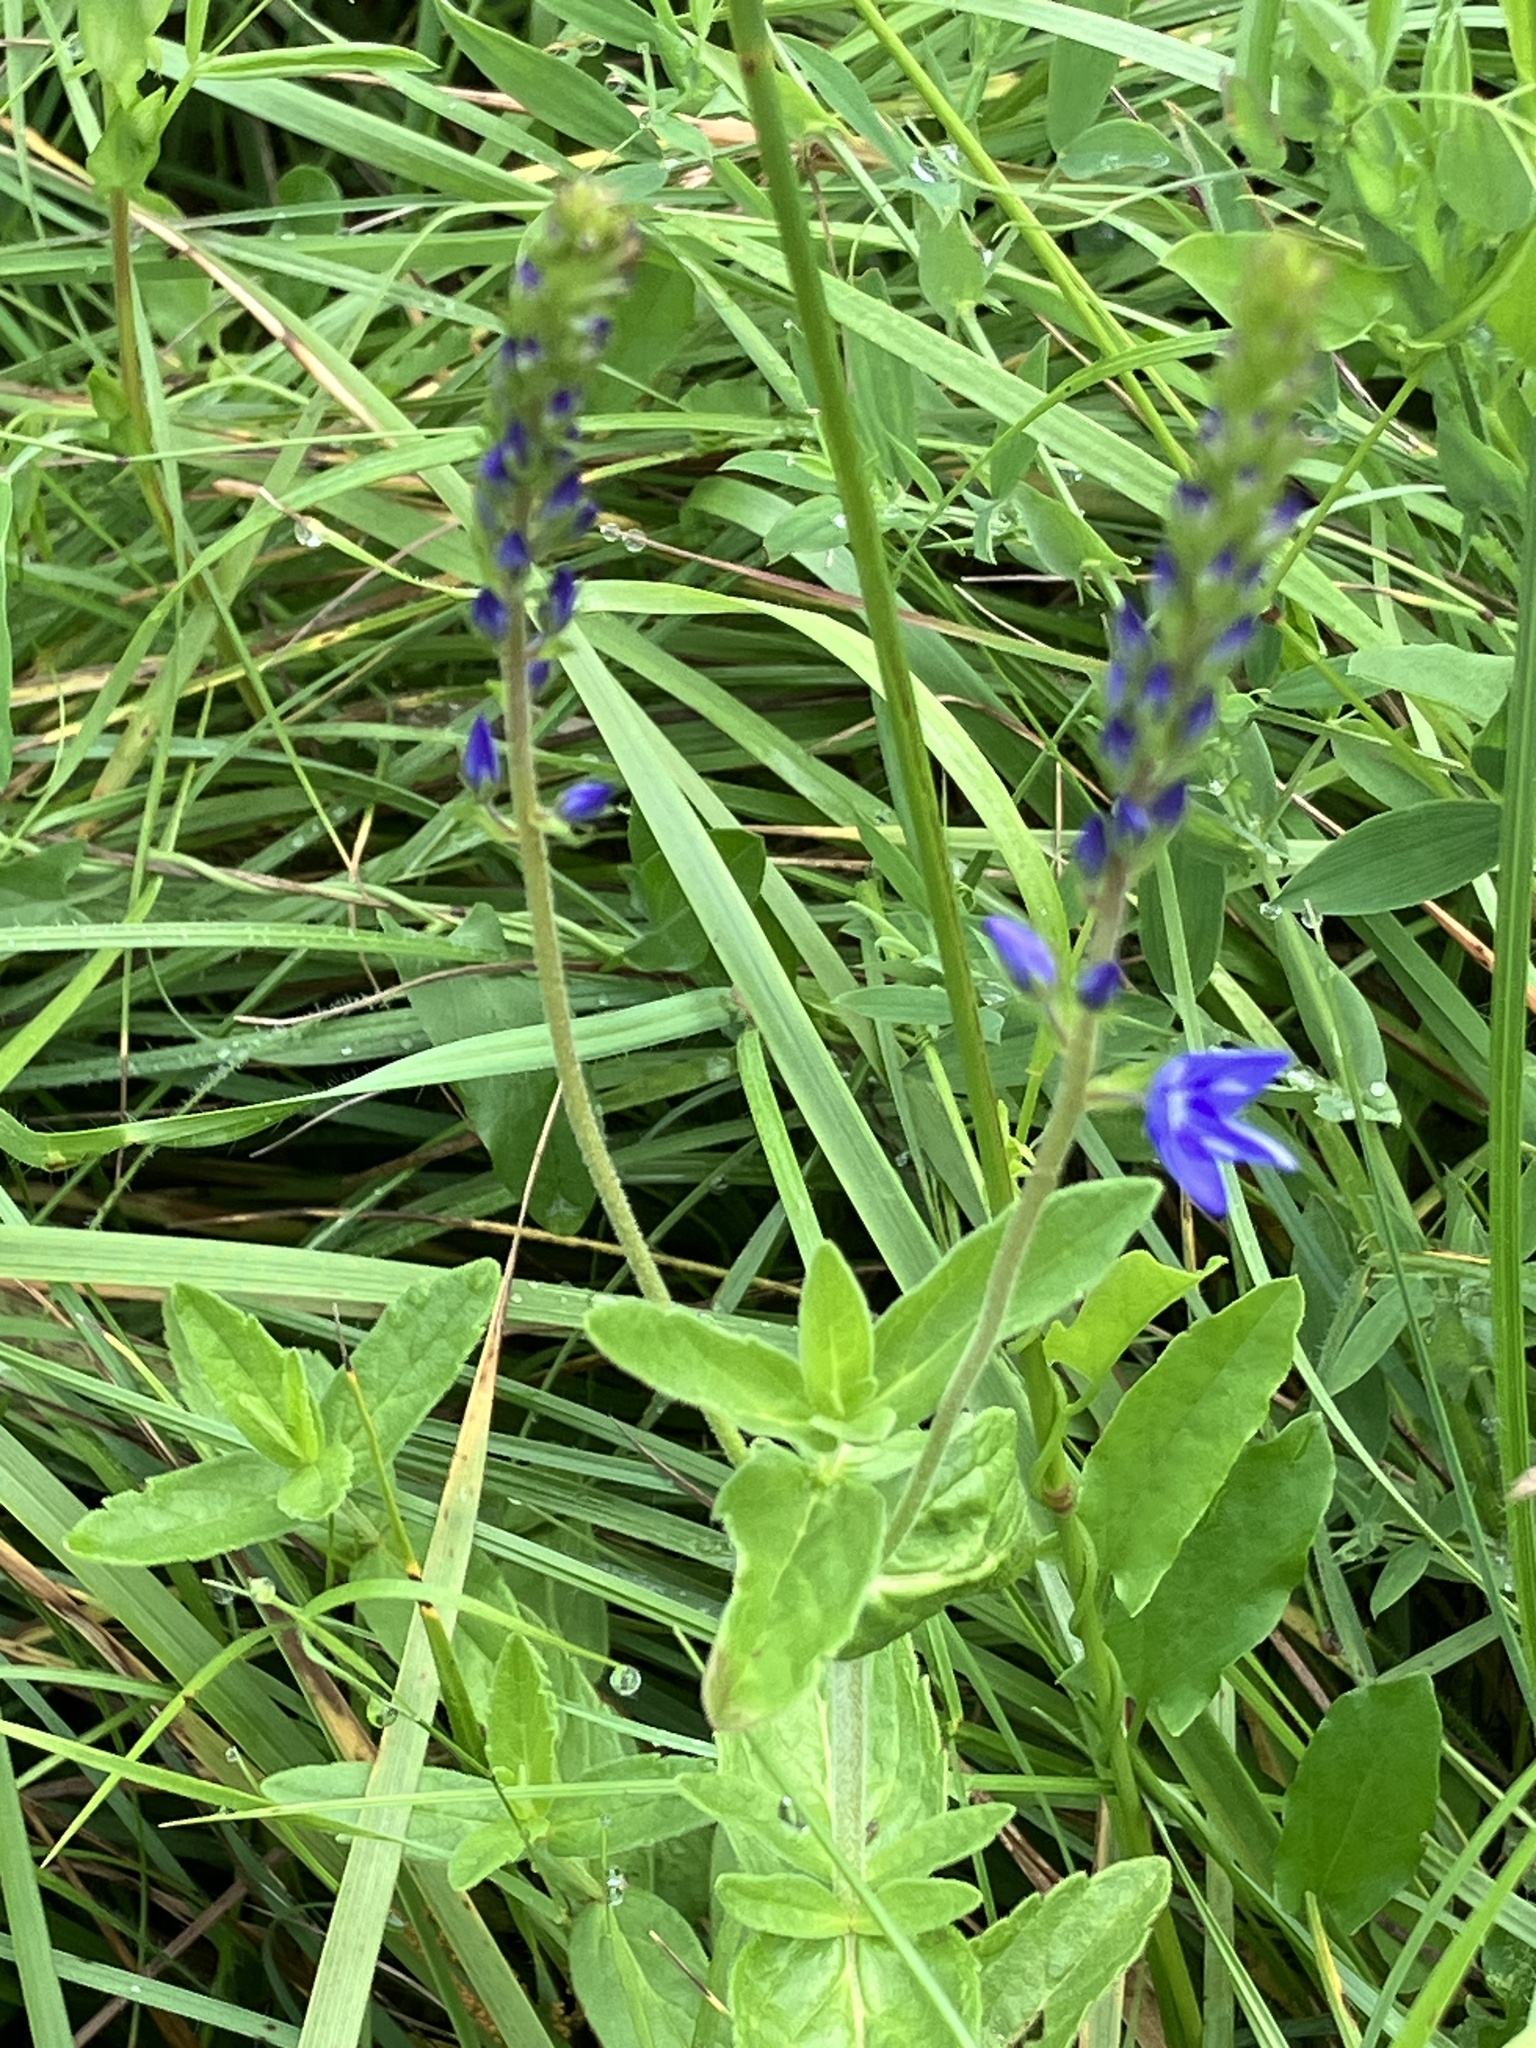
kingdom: Plantae
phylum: Tracheophyta
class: Magnoliopsida
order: Lamiales
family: Plantaginaceae
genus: Veronica
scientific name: Veronica teucrium
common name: Large speedwell
